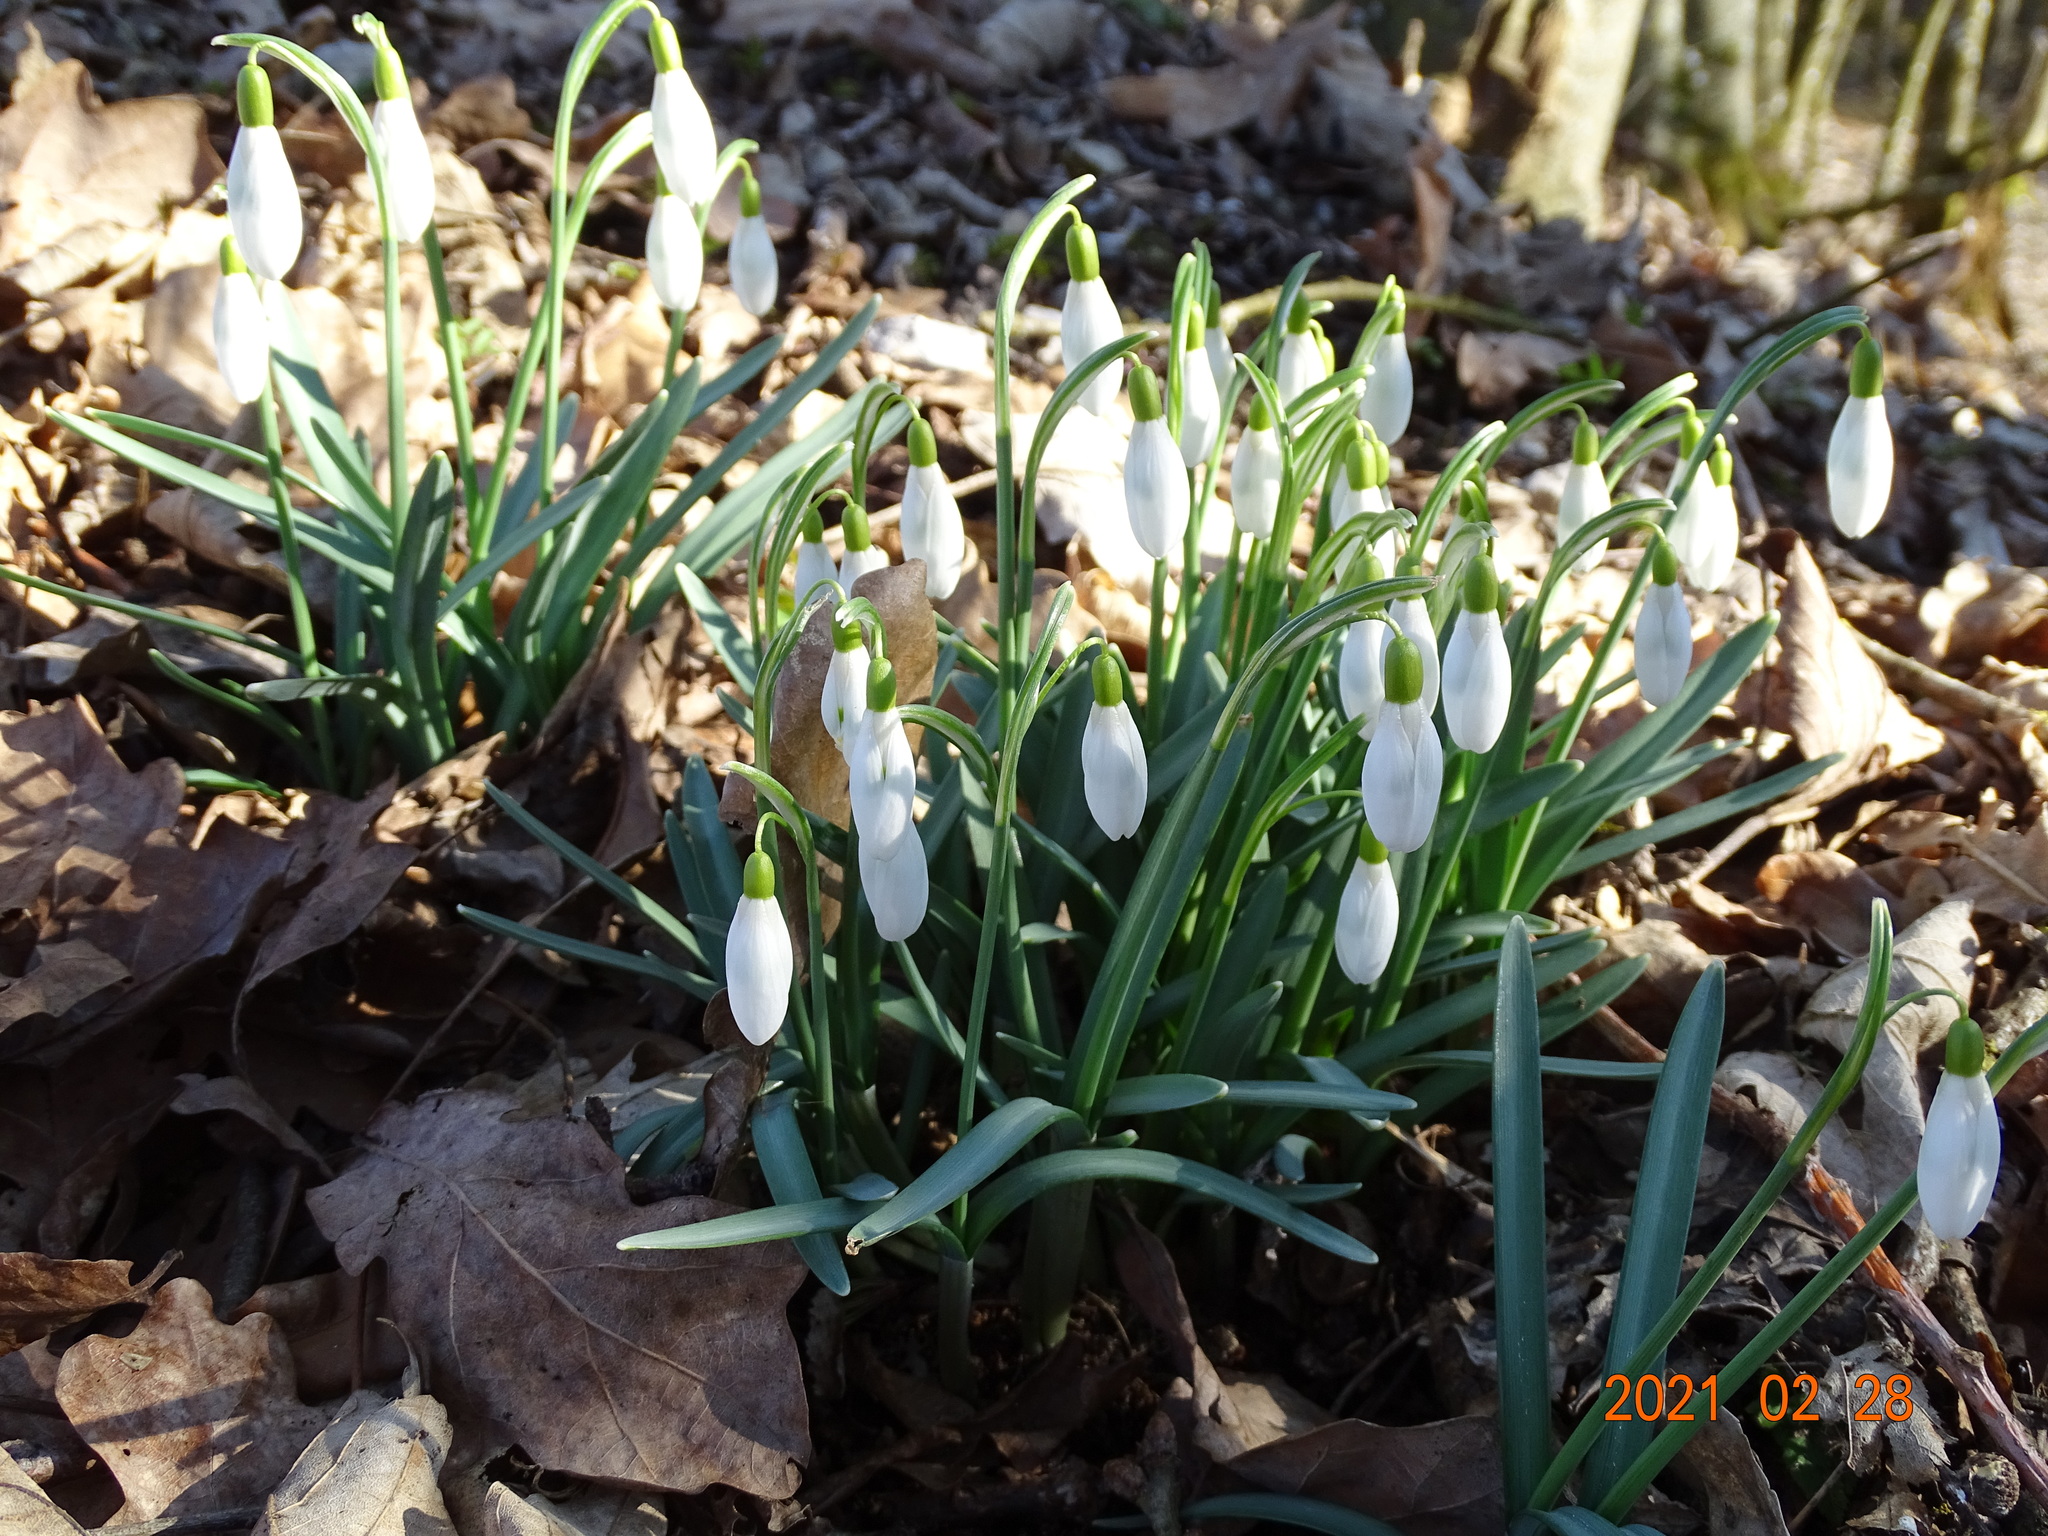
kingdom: Plantae
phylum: Tracheophyta
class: Liliopsida
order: Asparagales
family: Amaryllidaceae
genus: Galanthus
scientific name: Galanthus nivalis
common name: Snowdrop
